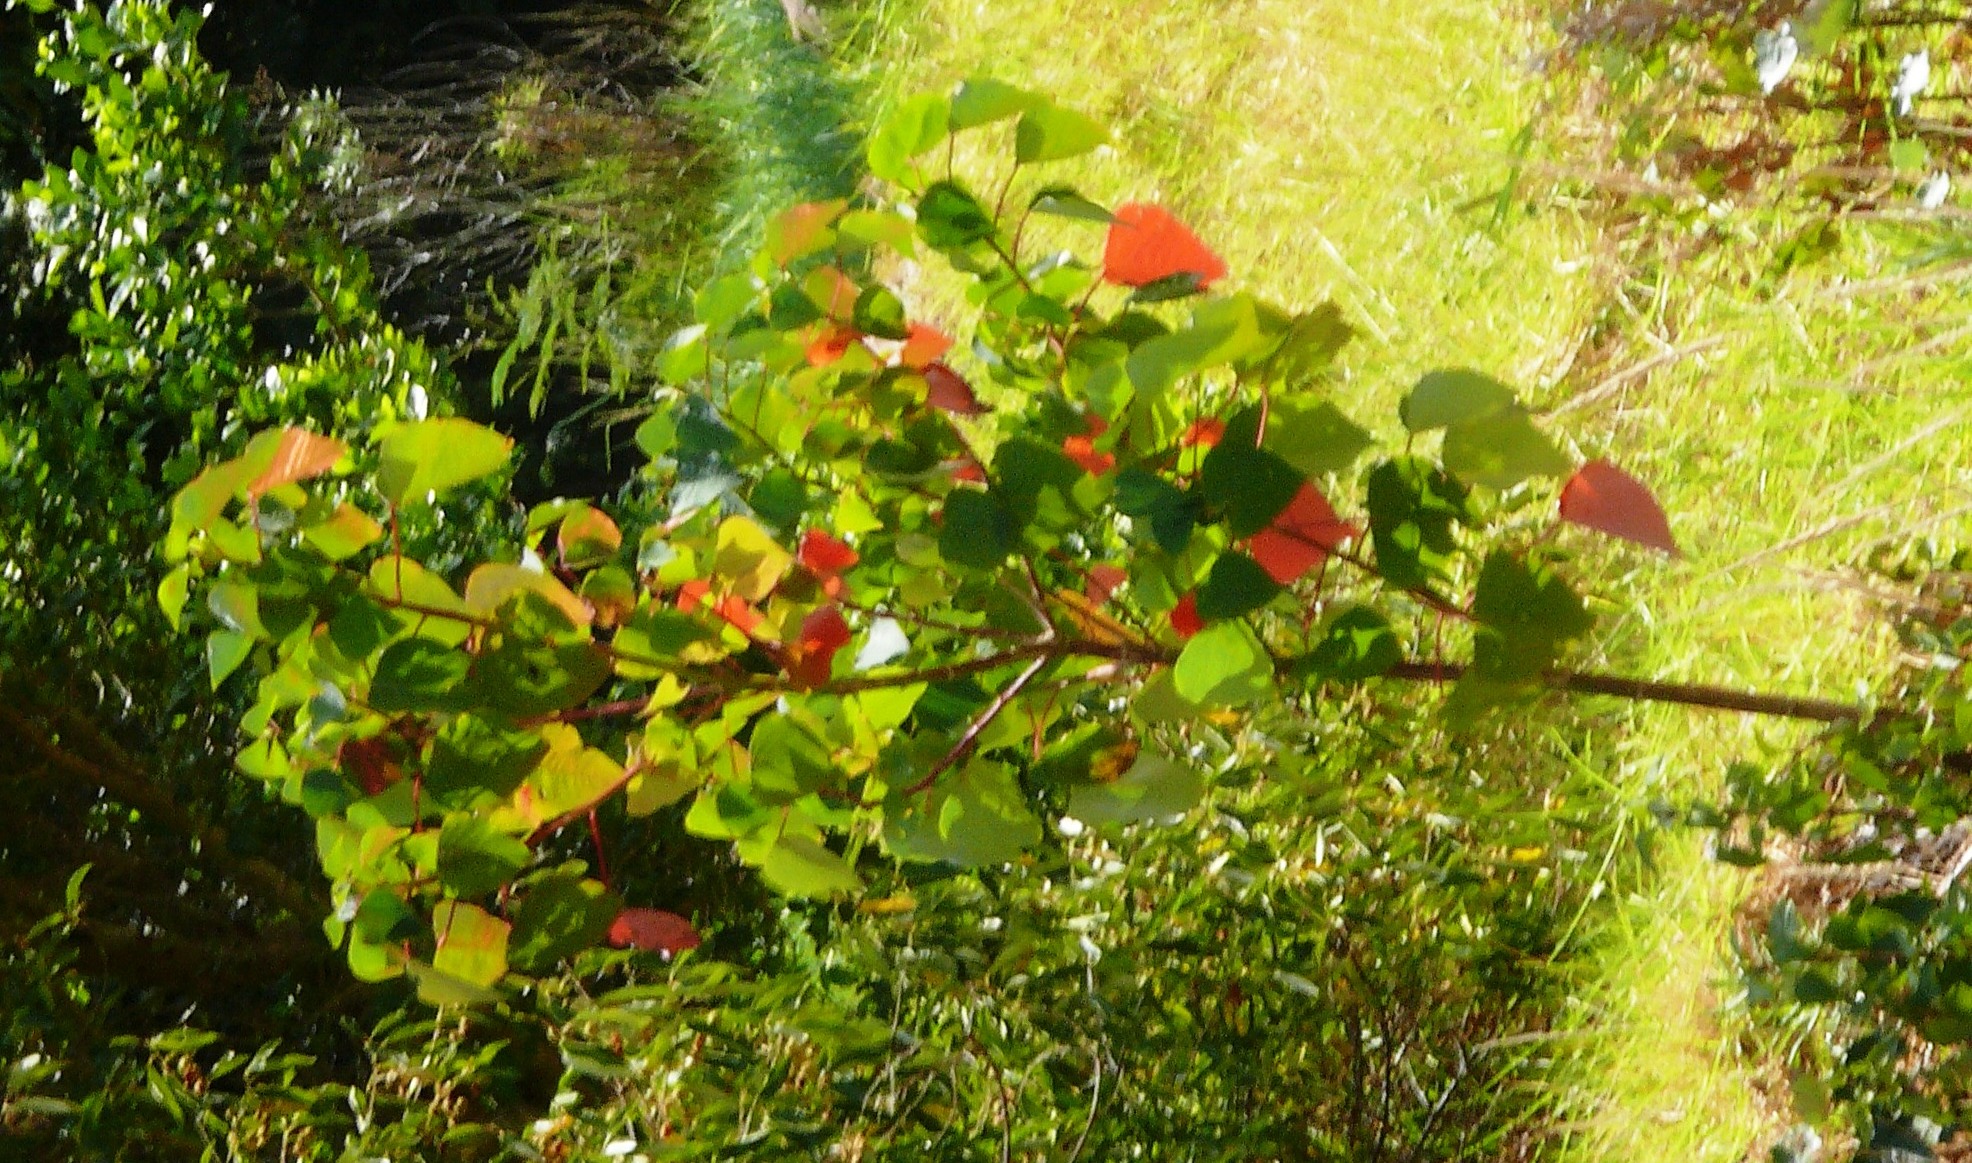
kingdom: Plantae
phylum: Tracheophyta
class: Magnoliopsida
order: Malpighiales
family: Euphorbiaceae
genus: Homalanthus
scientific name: Homalanthus populifolius
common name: Queensland poplar
